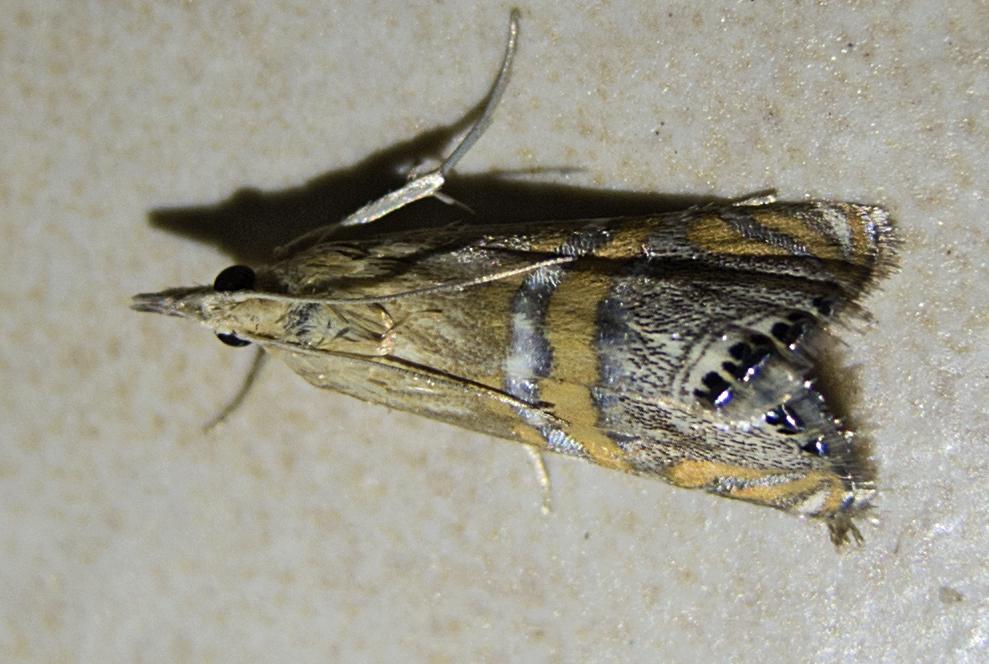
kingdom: Animalia
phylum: Arthropoda
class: Insecta
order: Lepidoptera
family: Crambidae
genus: Euchromius
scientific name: Euchromius bella
